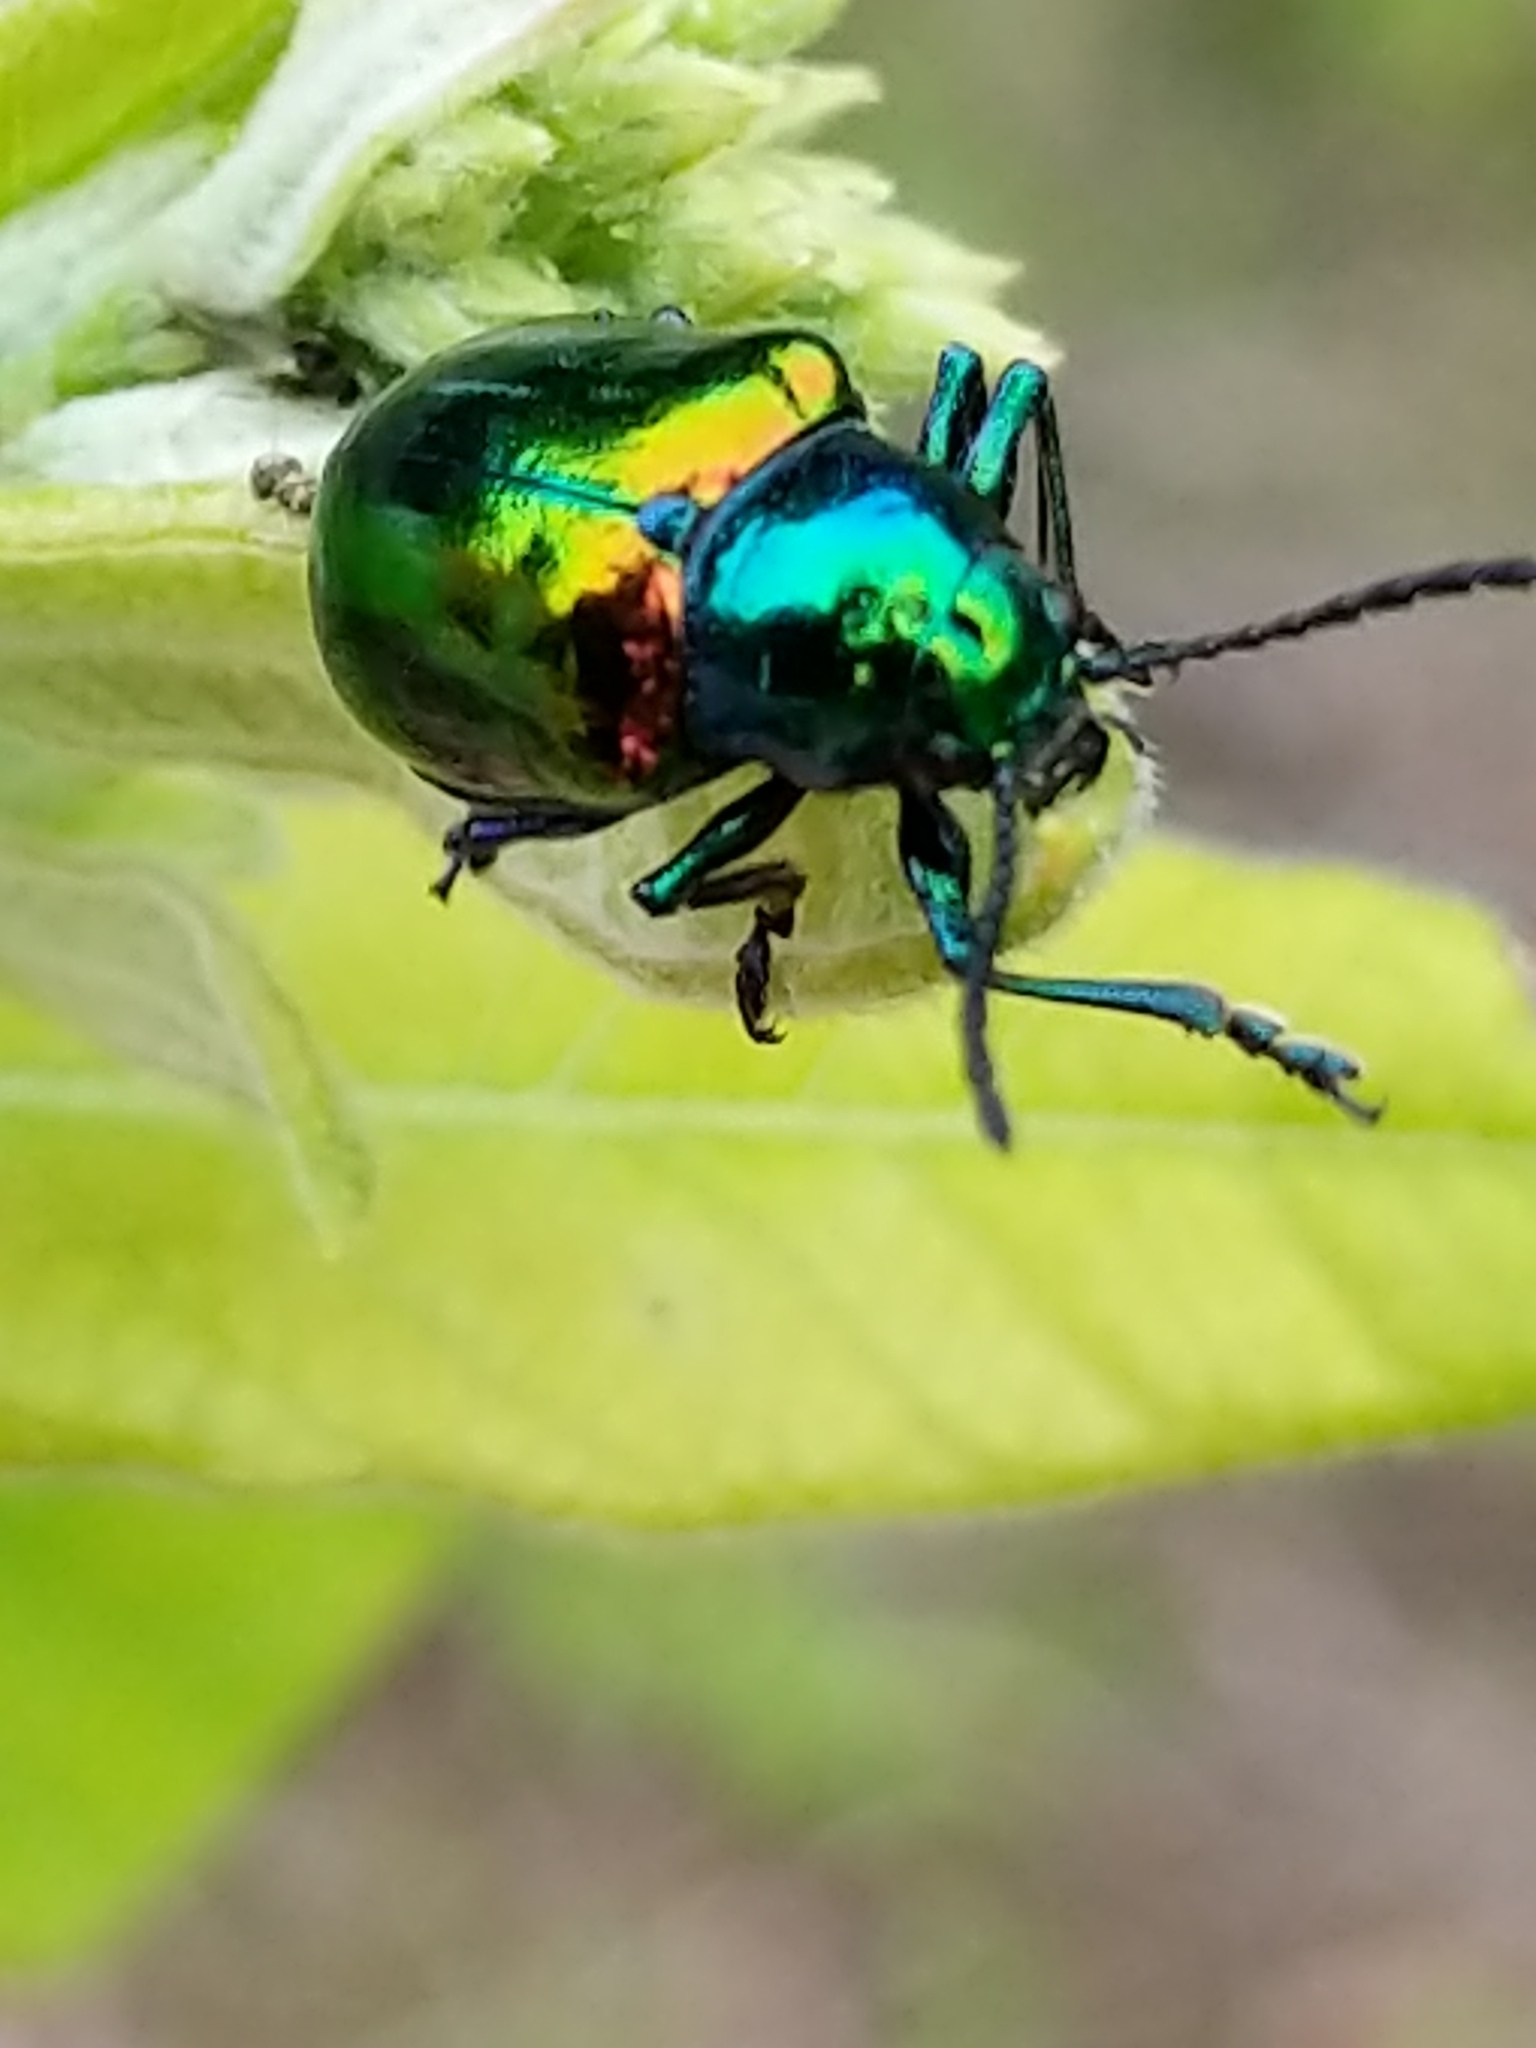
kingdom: Animalia
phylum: Arthropoda
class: Insecta
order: Coleoptera
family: Chrysomelidae
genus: Chrysochus
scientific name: Chrysochus auratus
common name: Dogbane leaf beetle
